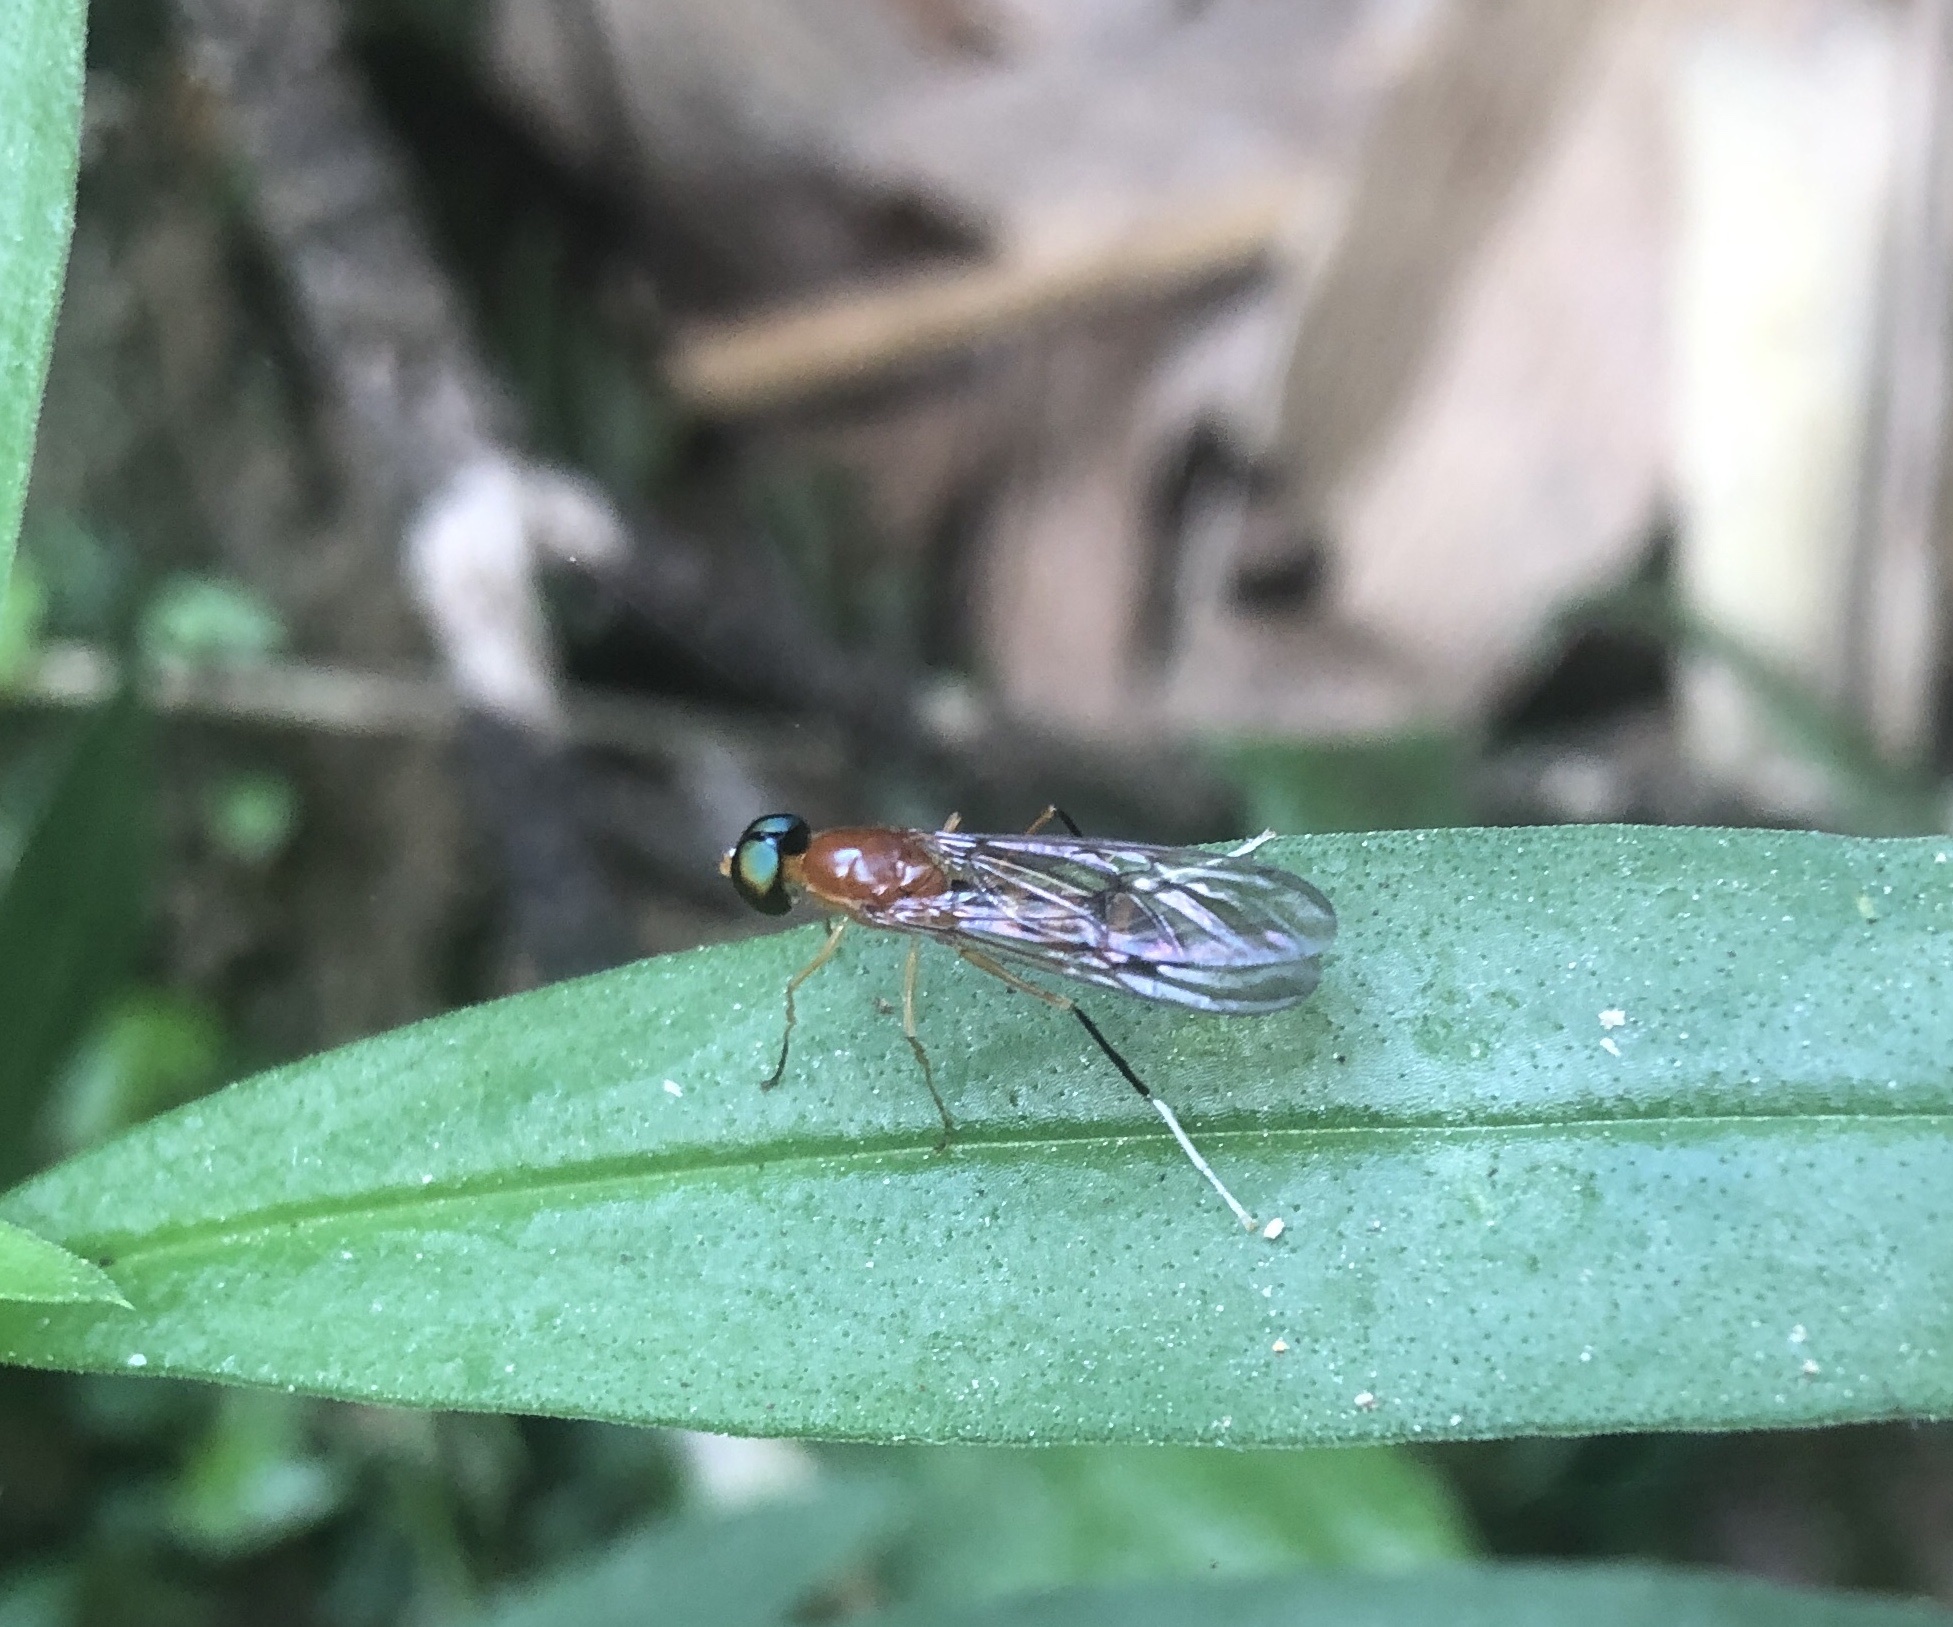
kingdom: Animalia
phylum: Arthropoda
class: Insecta
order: Diptera
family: Stratiomyidae
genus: Ptecticus
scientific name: Ptecticus australis
